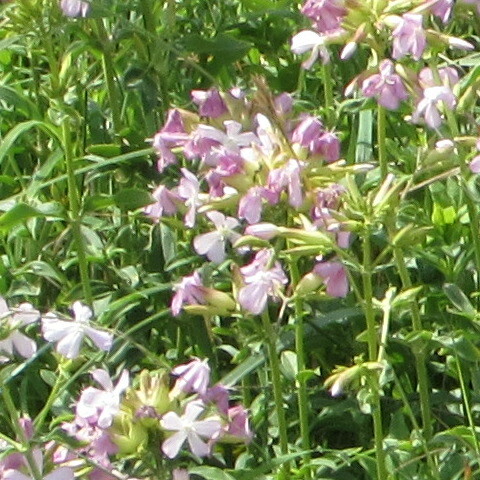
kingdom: Plantae
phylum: Tracheophyta
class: Magnoliopsida
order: Caryophyllales
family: Caryophyllaceae
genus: Saponaria
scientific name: Saponaria officinalis
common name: Soapwort
